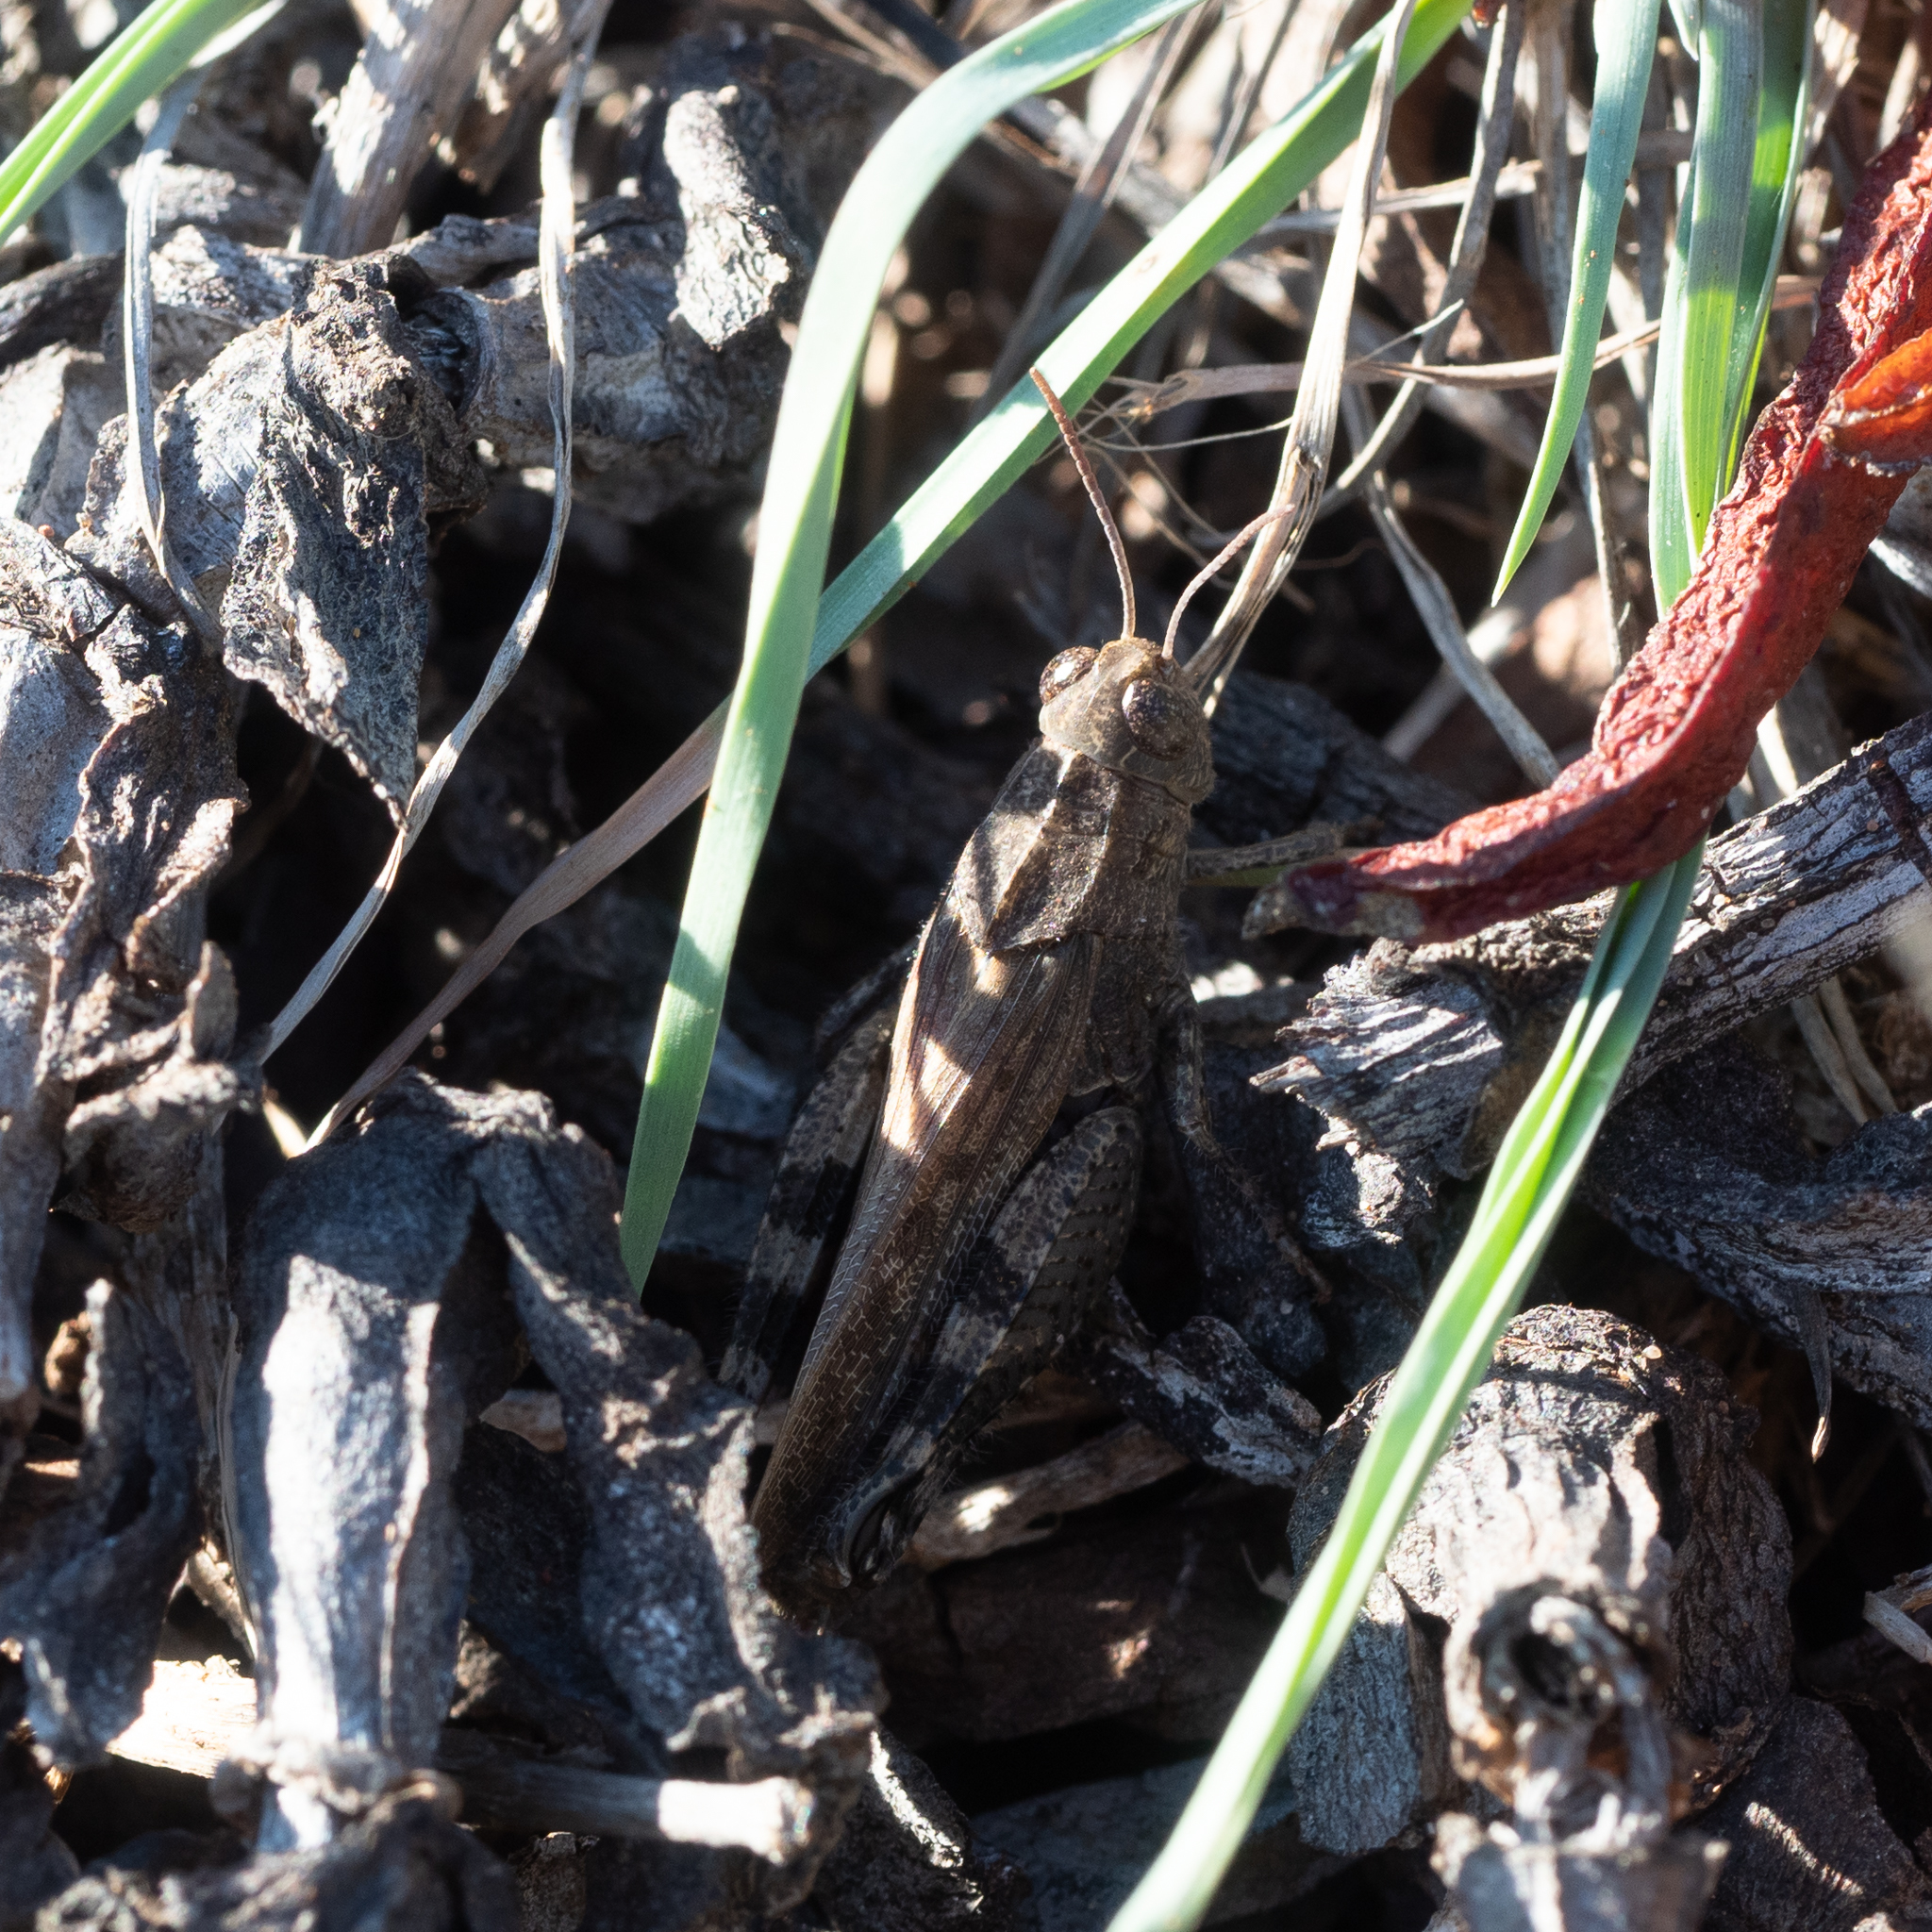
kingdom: Animalia
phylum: Arthropoda
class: Insecta
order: Orthoptera
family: Acrididae
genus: Calliptamus
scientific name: Calliptamus barbarus
